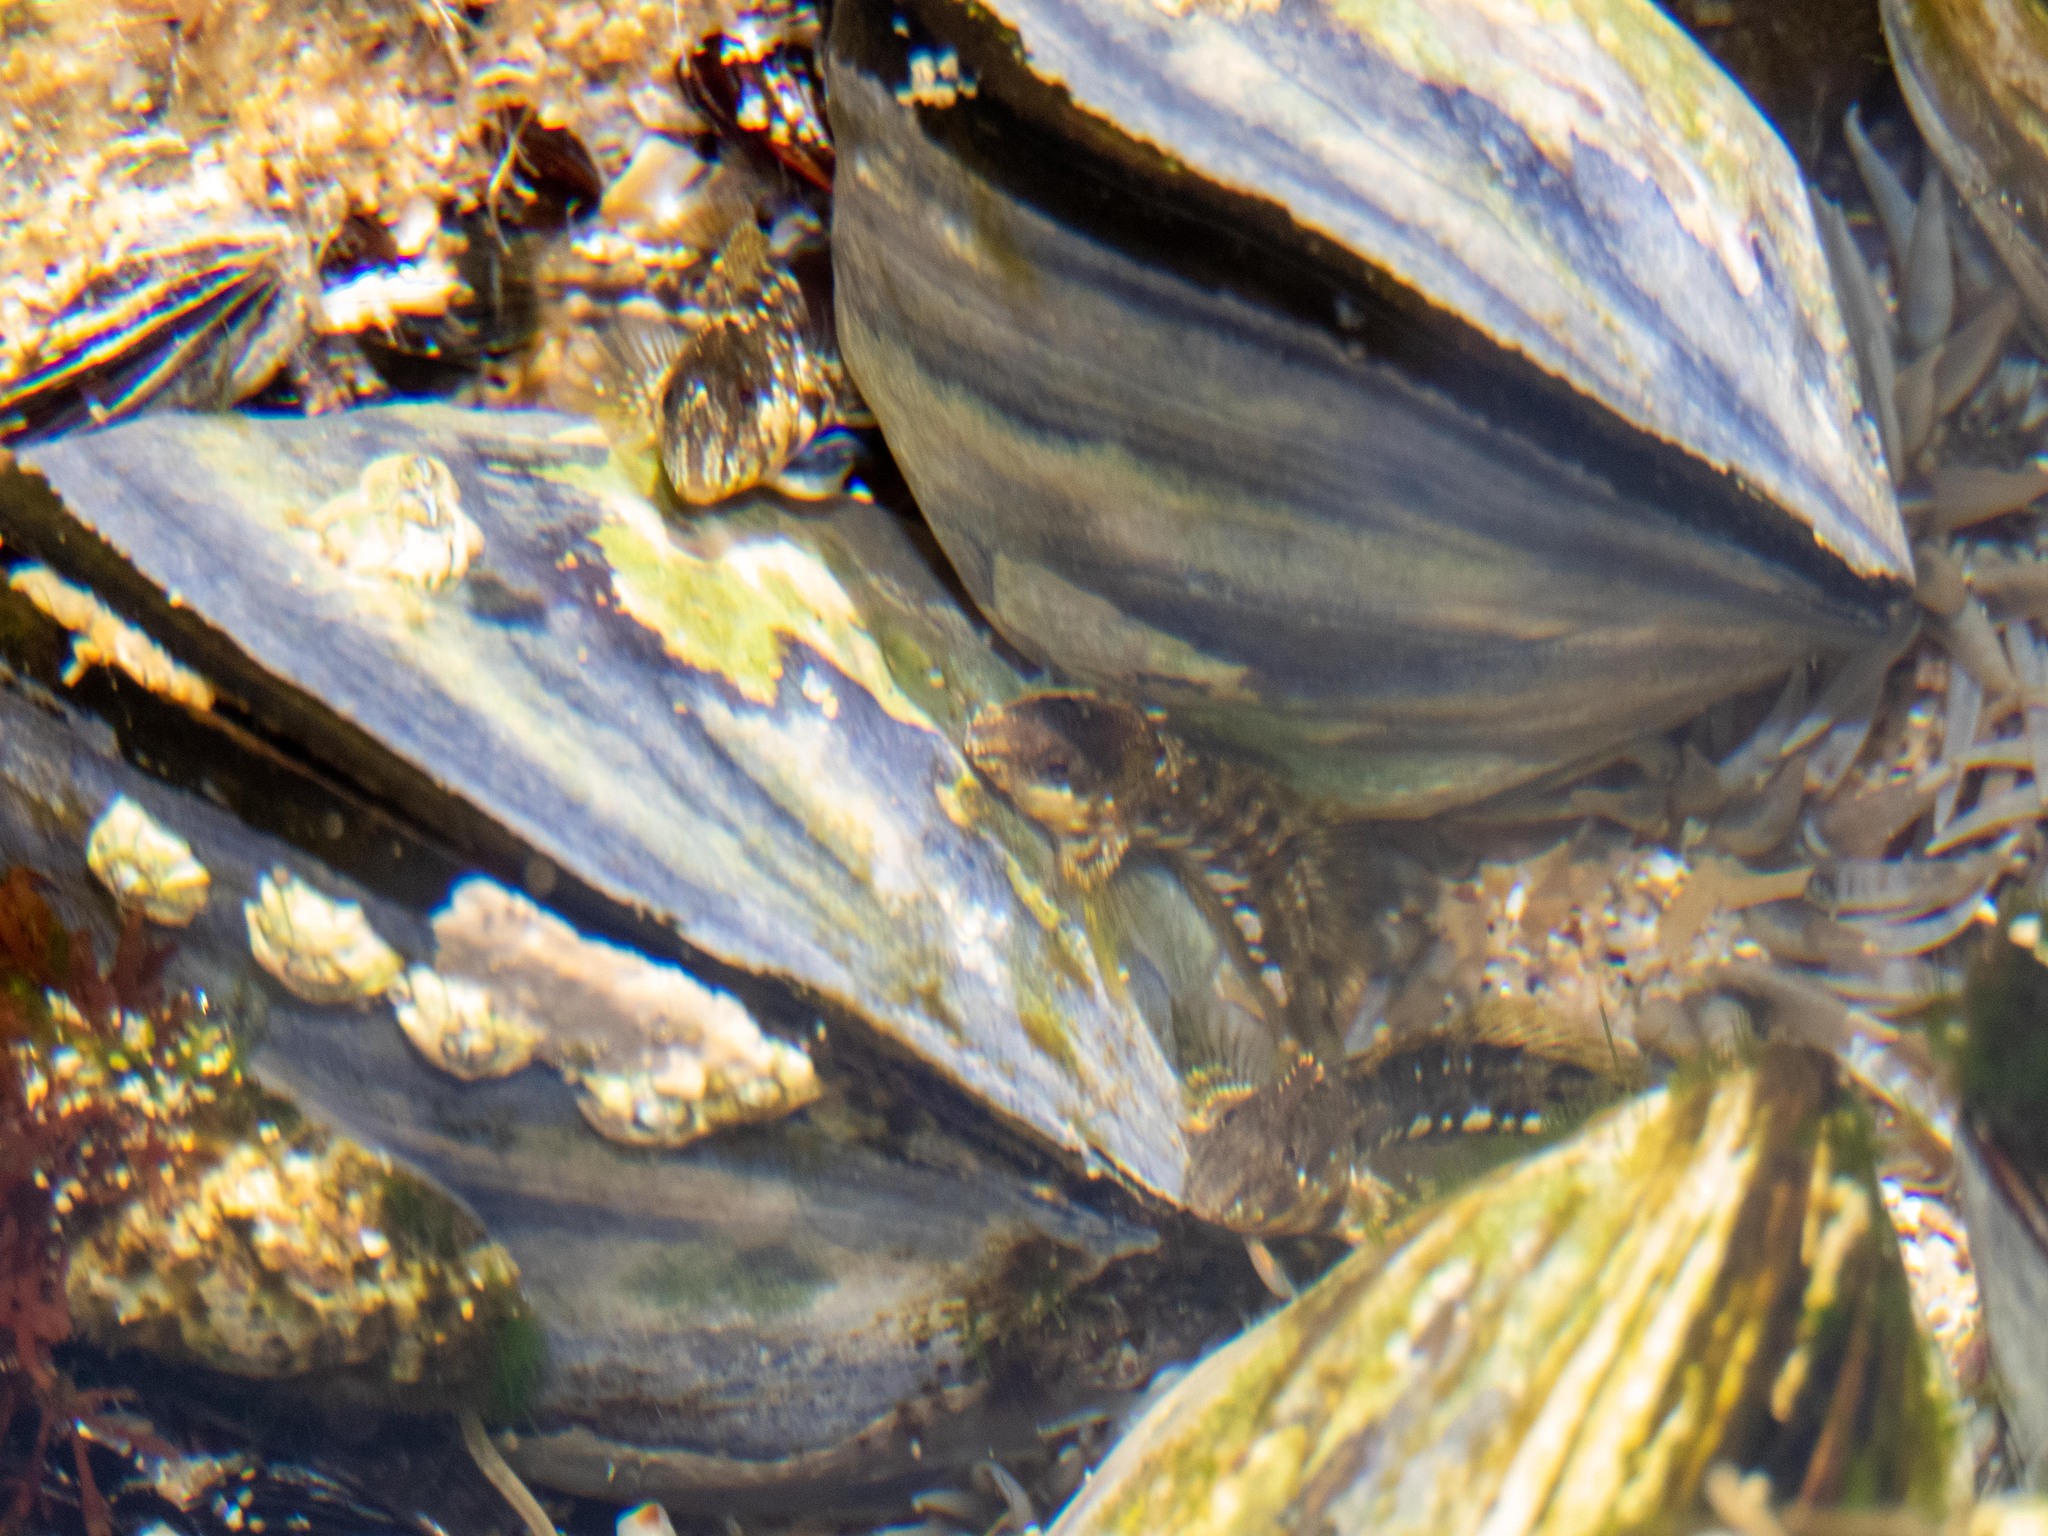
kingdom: Animalia
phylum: Chordata
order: Perciformes
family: Blenniidae
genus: Coryphoblennius
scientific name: Coryphoblennius galerita
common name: Montagu's blenny
